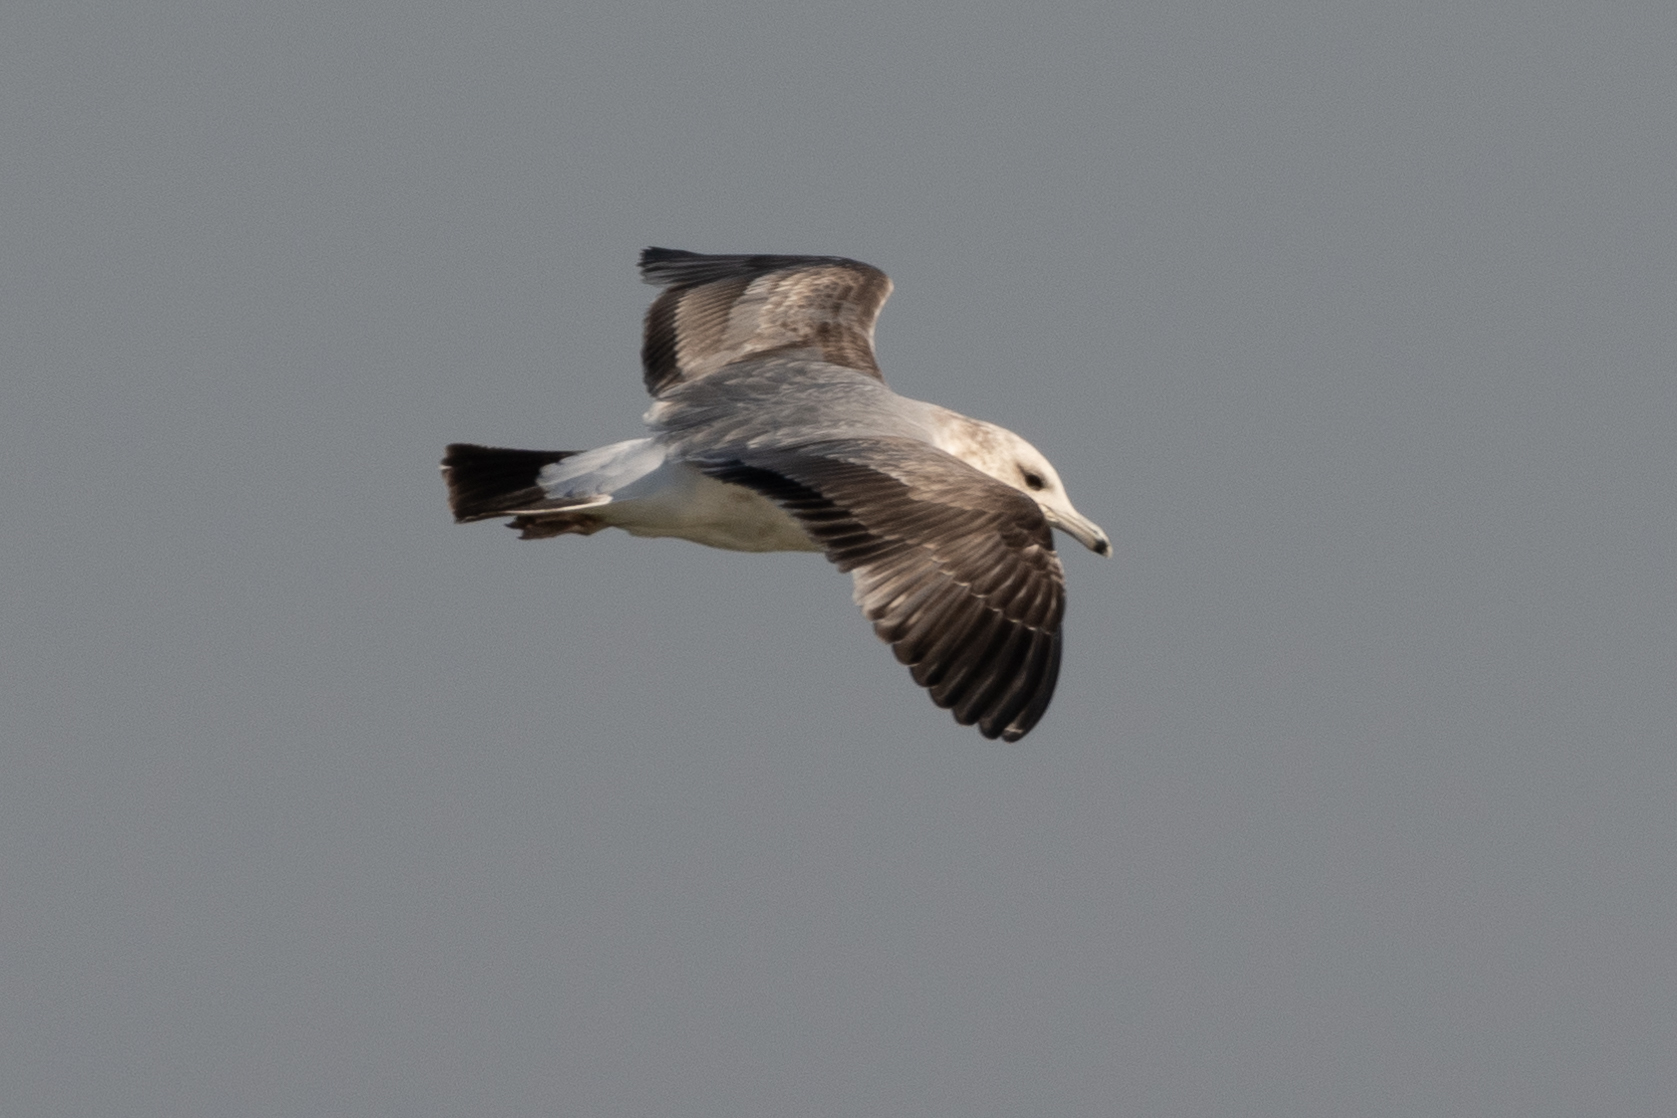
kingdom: Animalia
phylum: Chordata
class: Aves
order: Charadriiformes
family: Laridae
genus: Larus
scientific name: Larus californicus
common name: California gull
